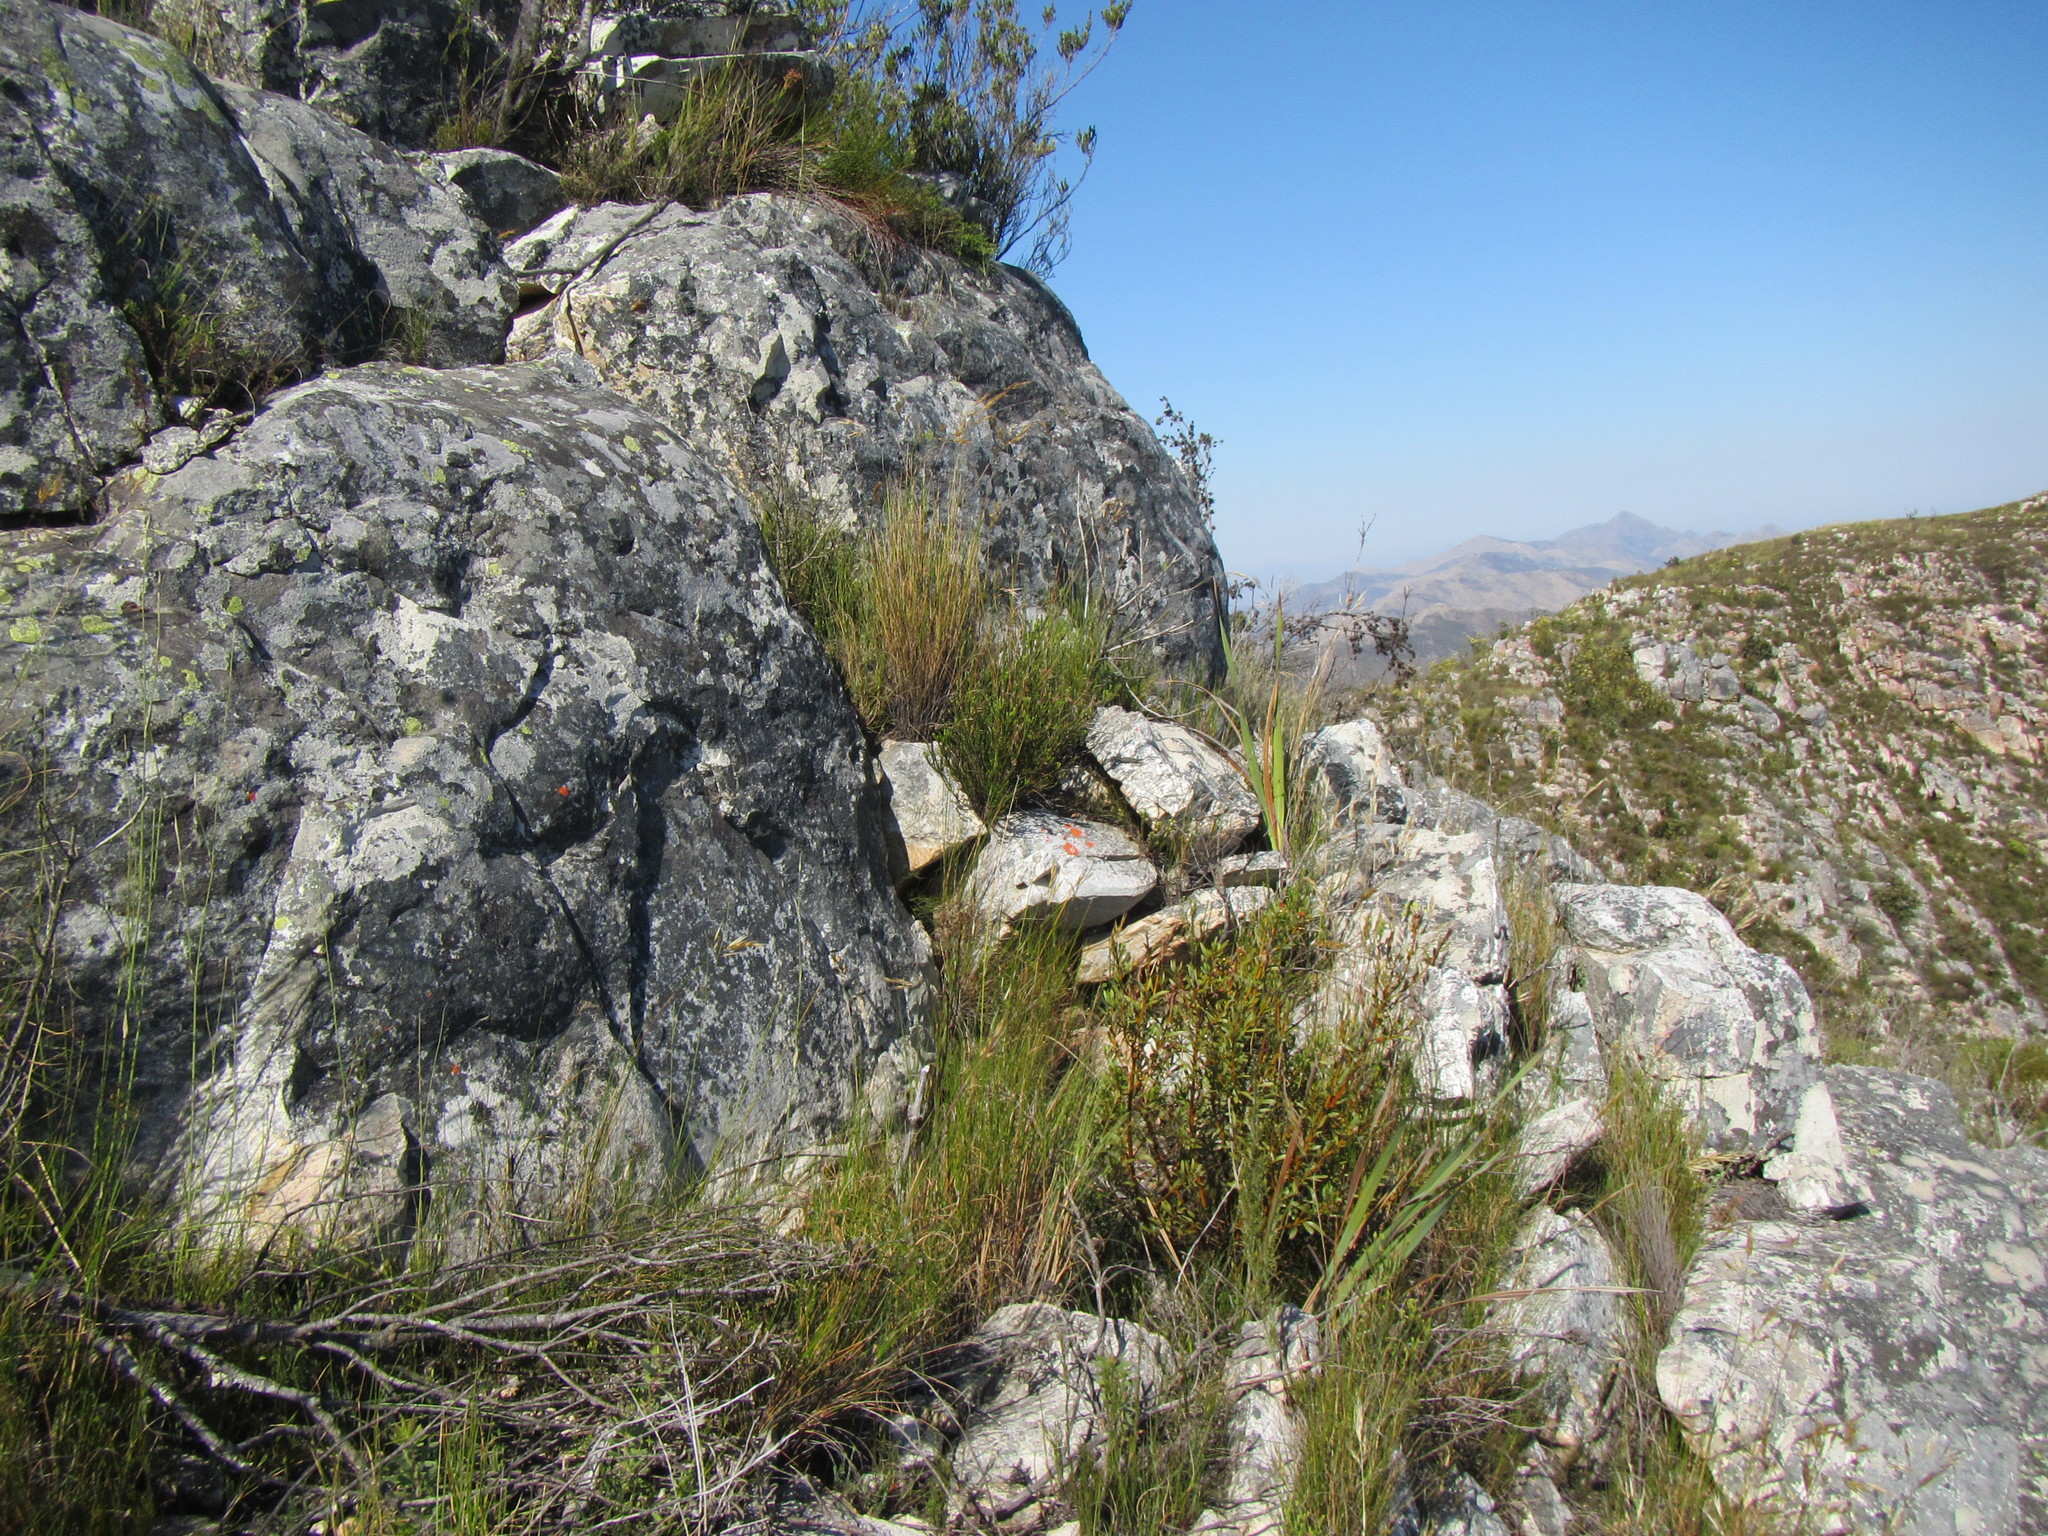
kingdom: Plantae
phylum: Tracheophyta
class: Liliopsida
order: Poales
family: Cyperaceae
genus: Schoenus
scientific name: Schoenus selinae
